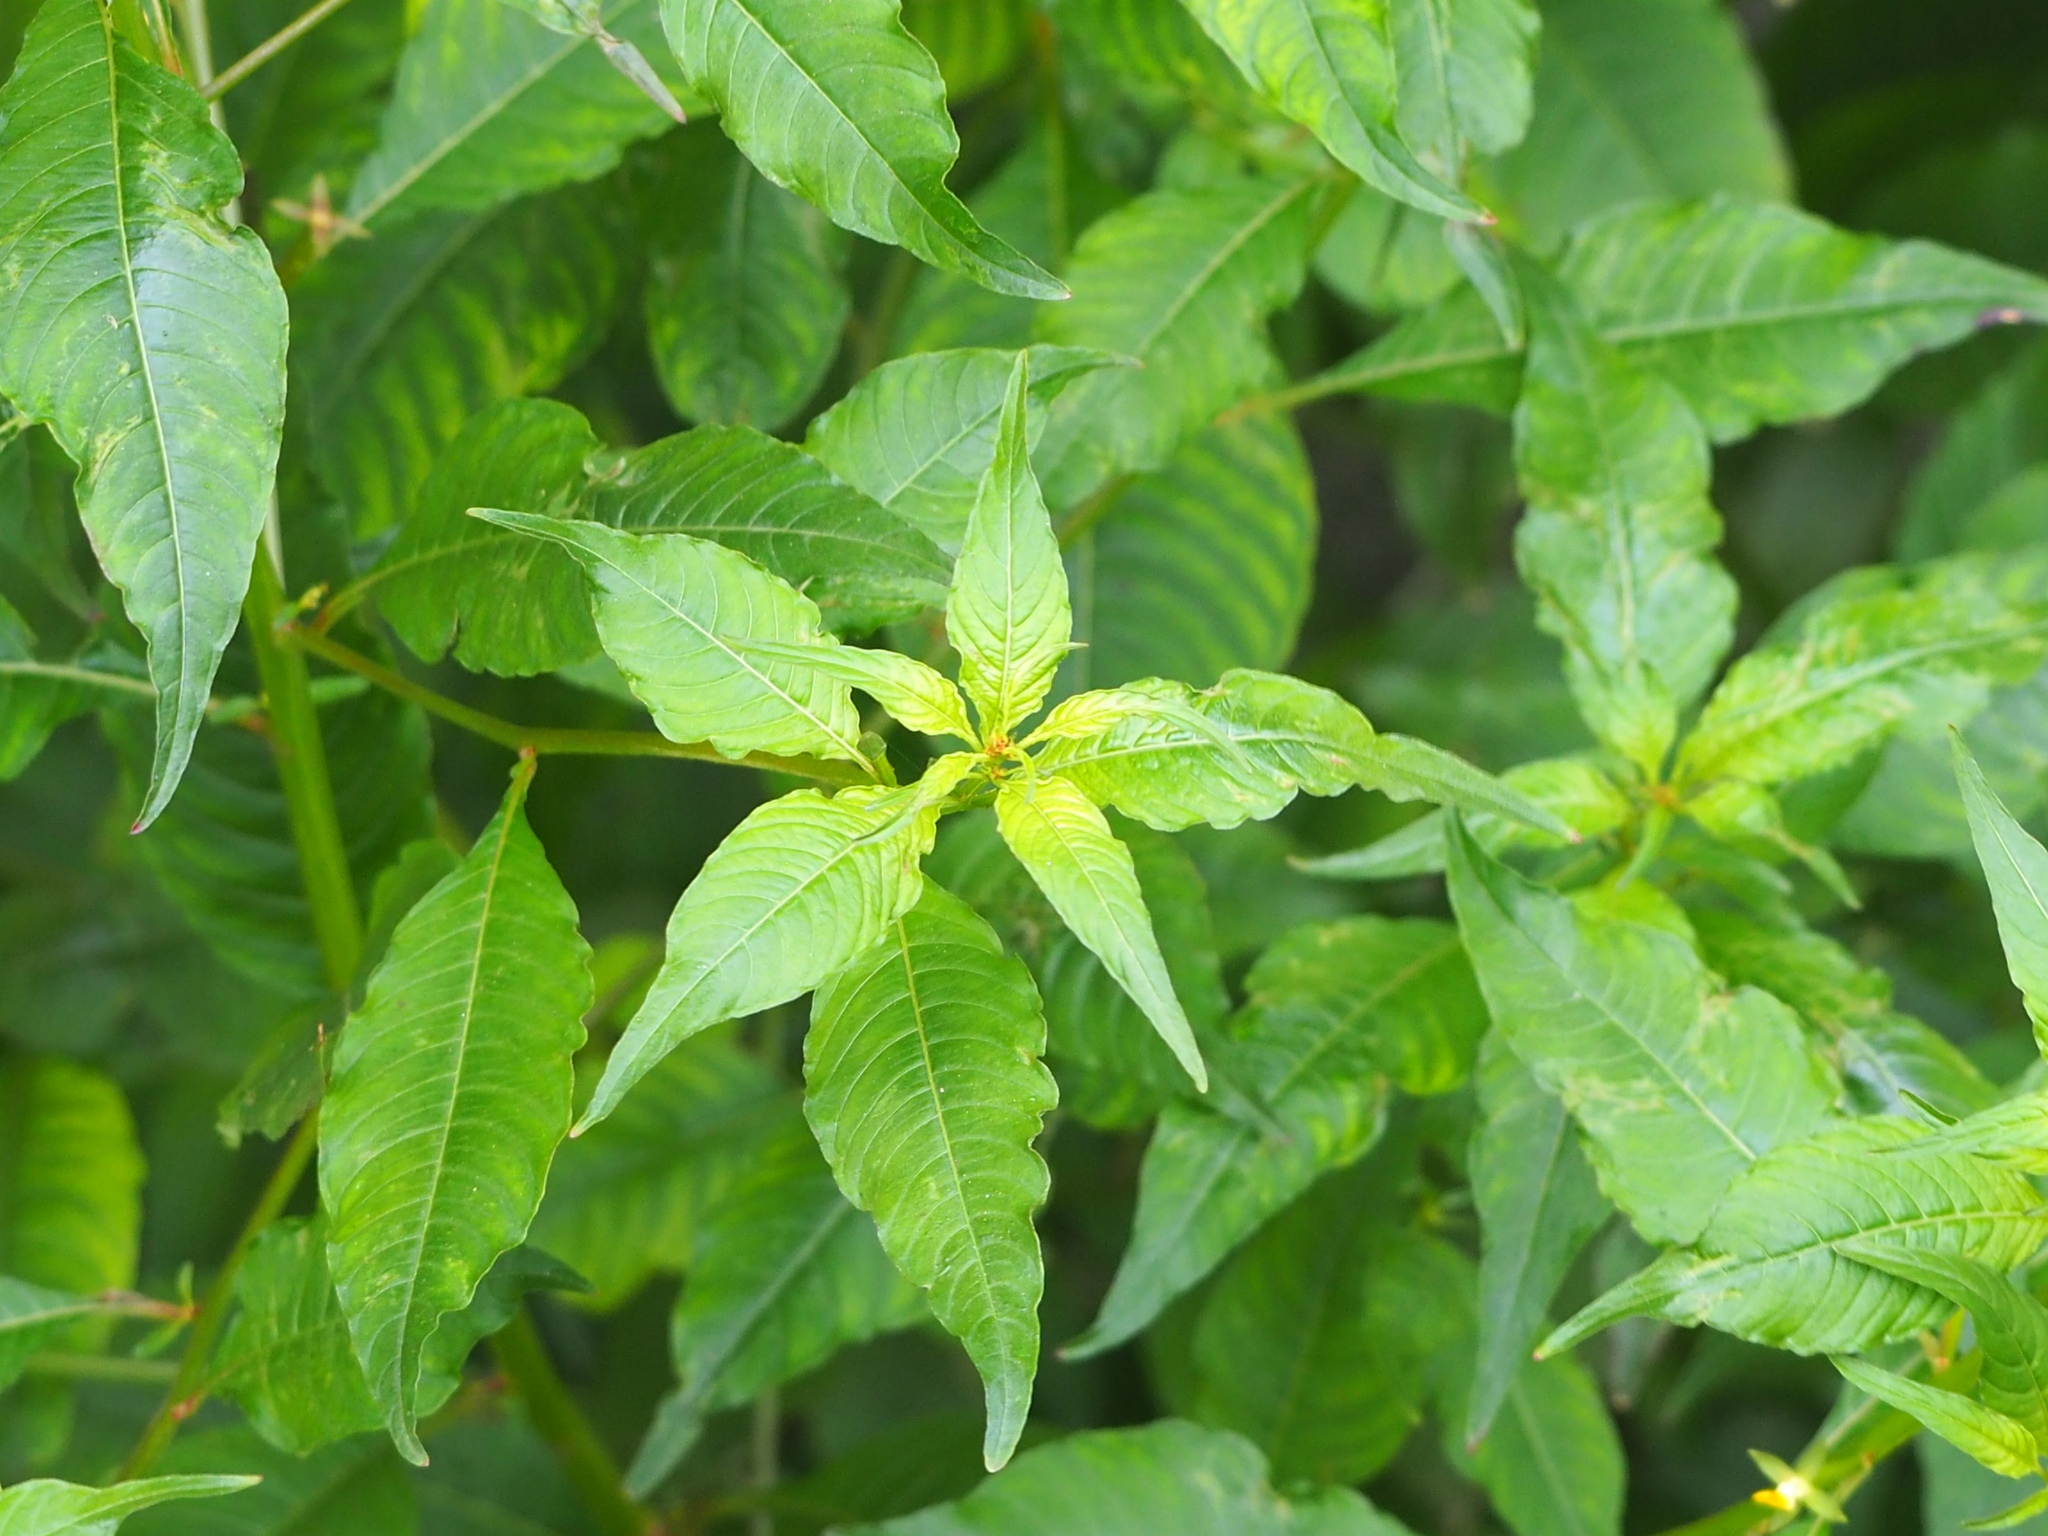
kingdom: Plantae
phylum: Tracheophyta
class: Magnoliopsida
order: Myrtales
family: Onagraceae
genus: Ludwigia
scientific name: Ludwigia hyssopifolia
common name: Linear leaf water primrose
